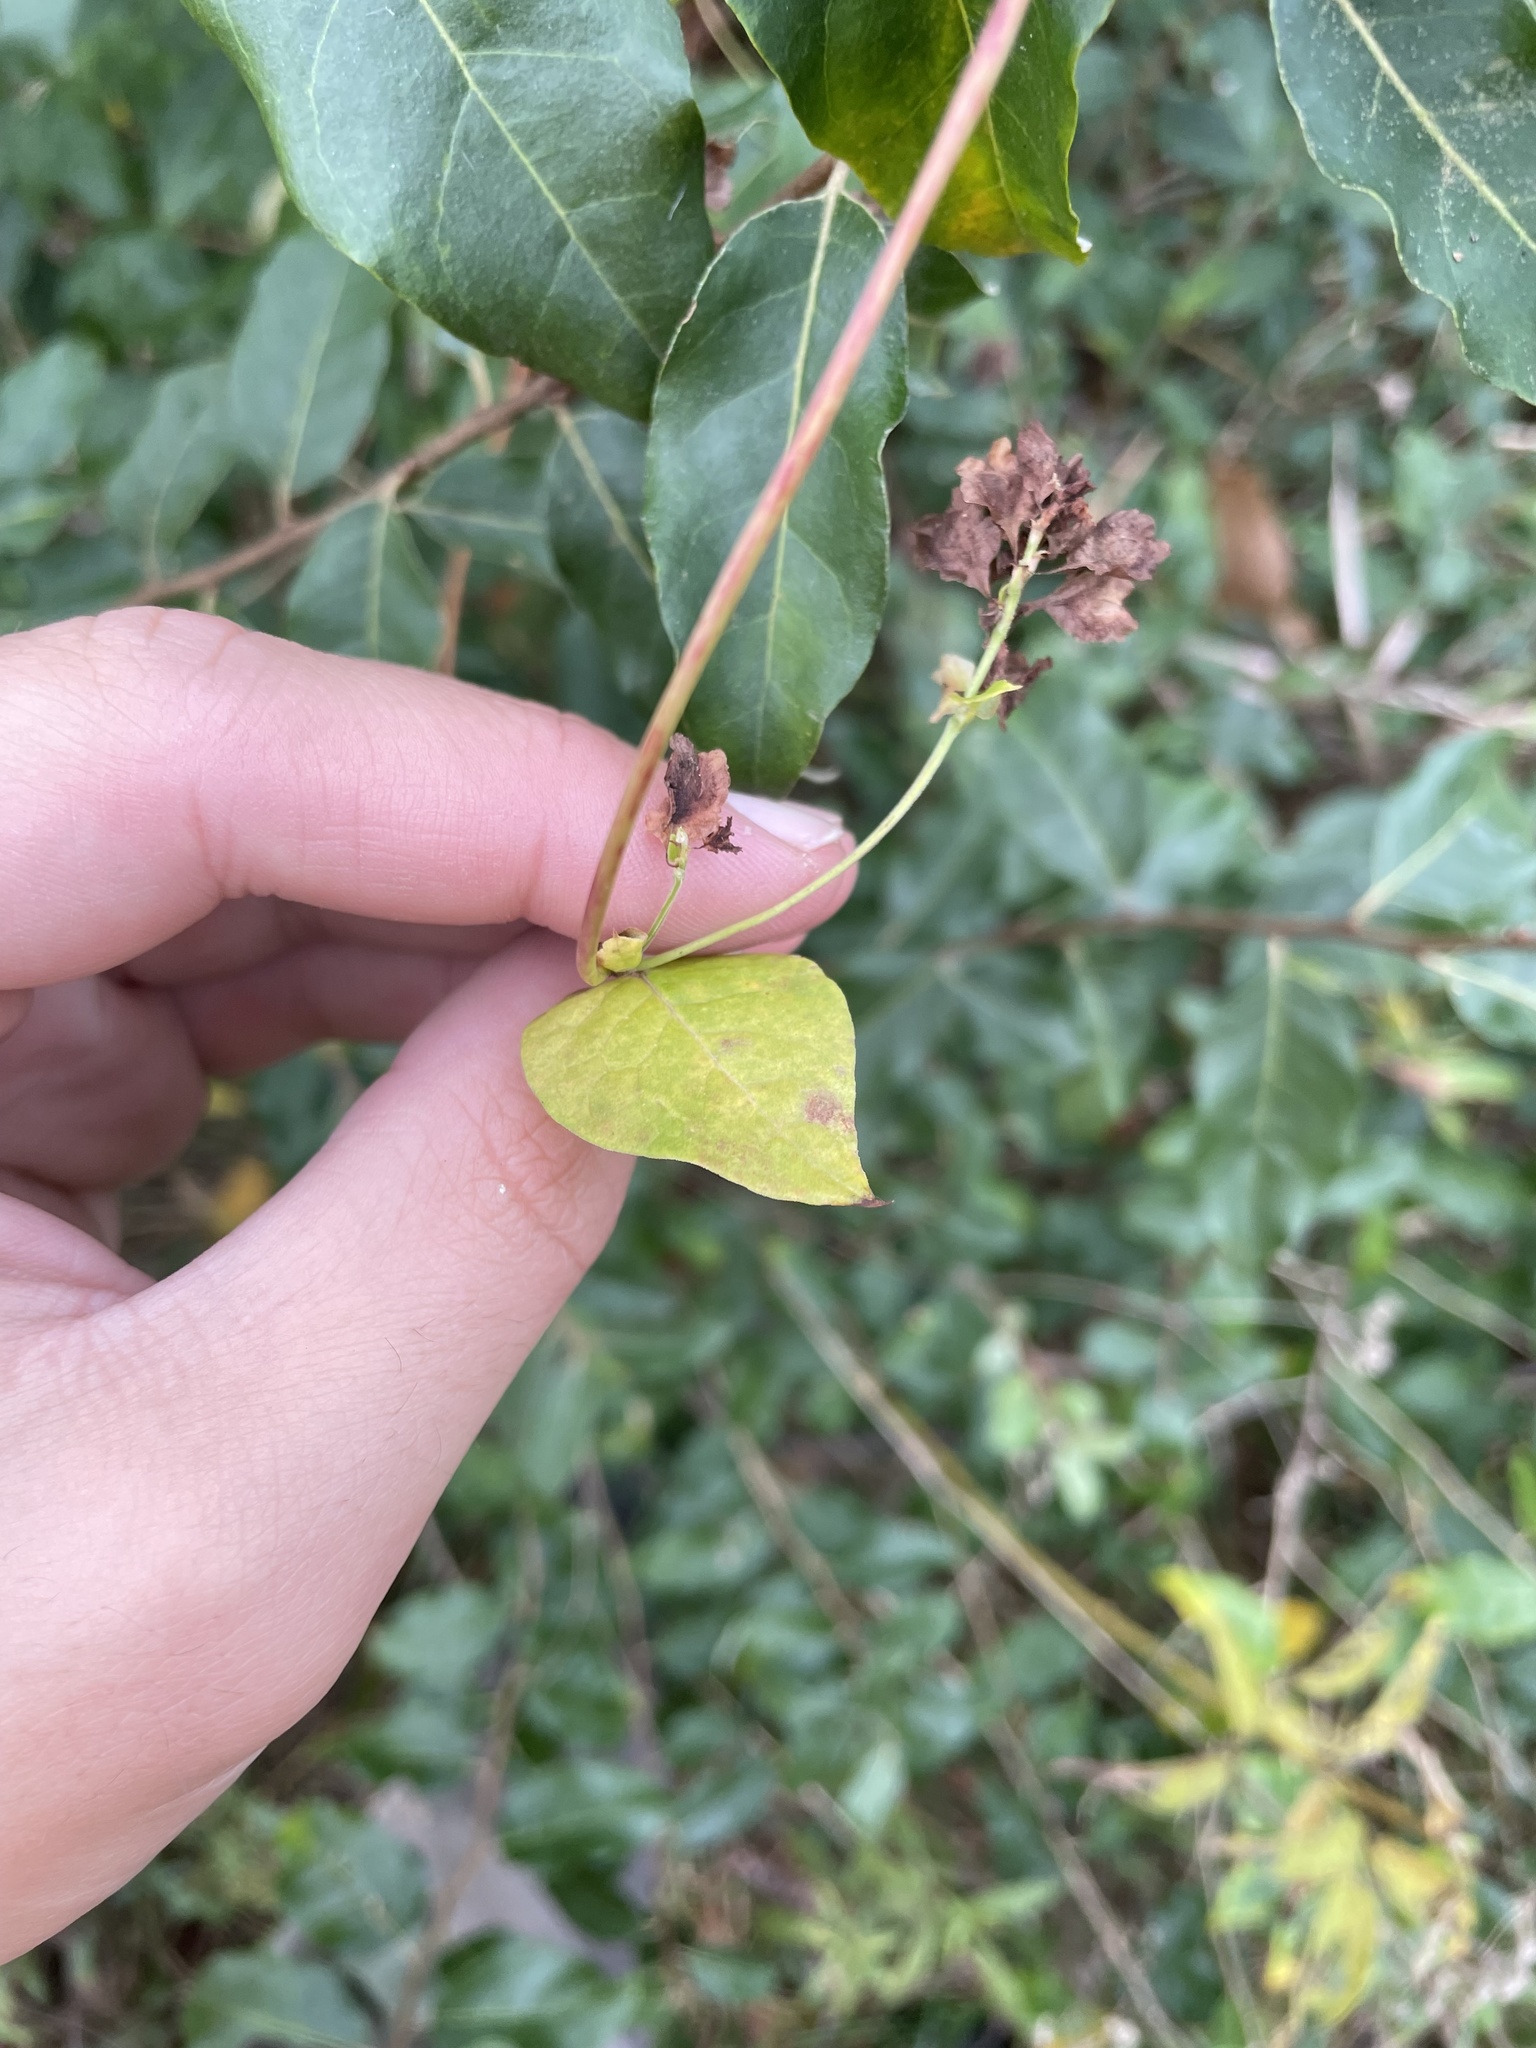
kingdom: Plantae
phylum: Tracheophyta
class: Magnoliopsida
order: Caryophyllales
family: Polygonaceae
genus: Fallopia
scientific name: Fallopia scandens
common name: Climbing false buckwheat
